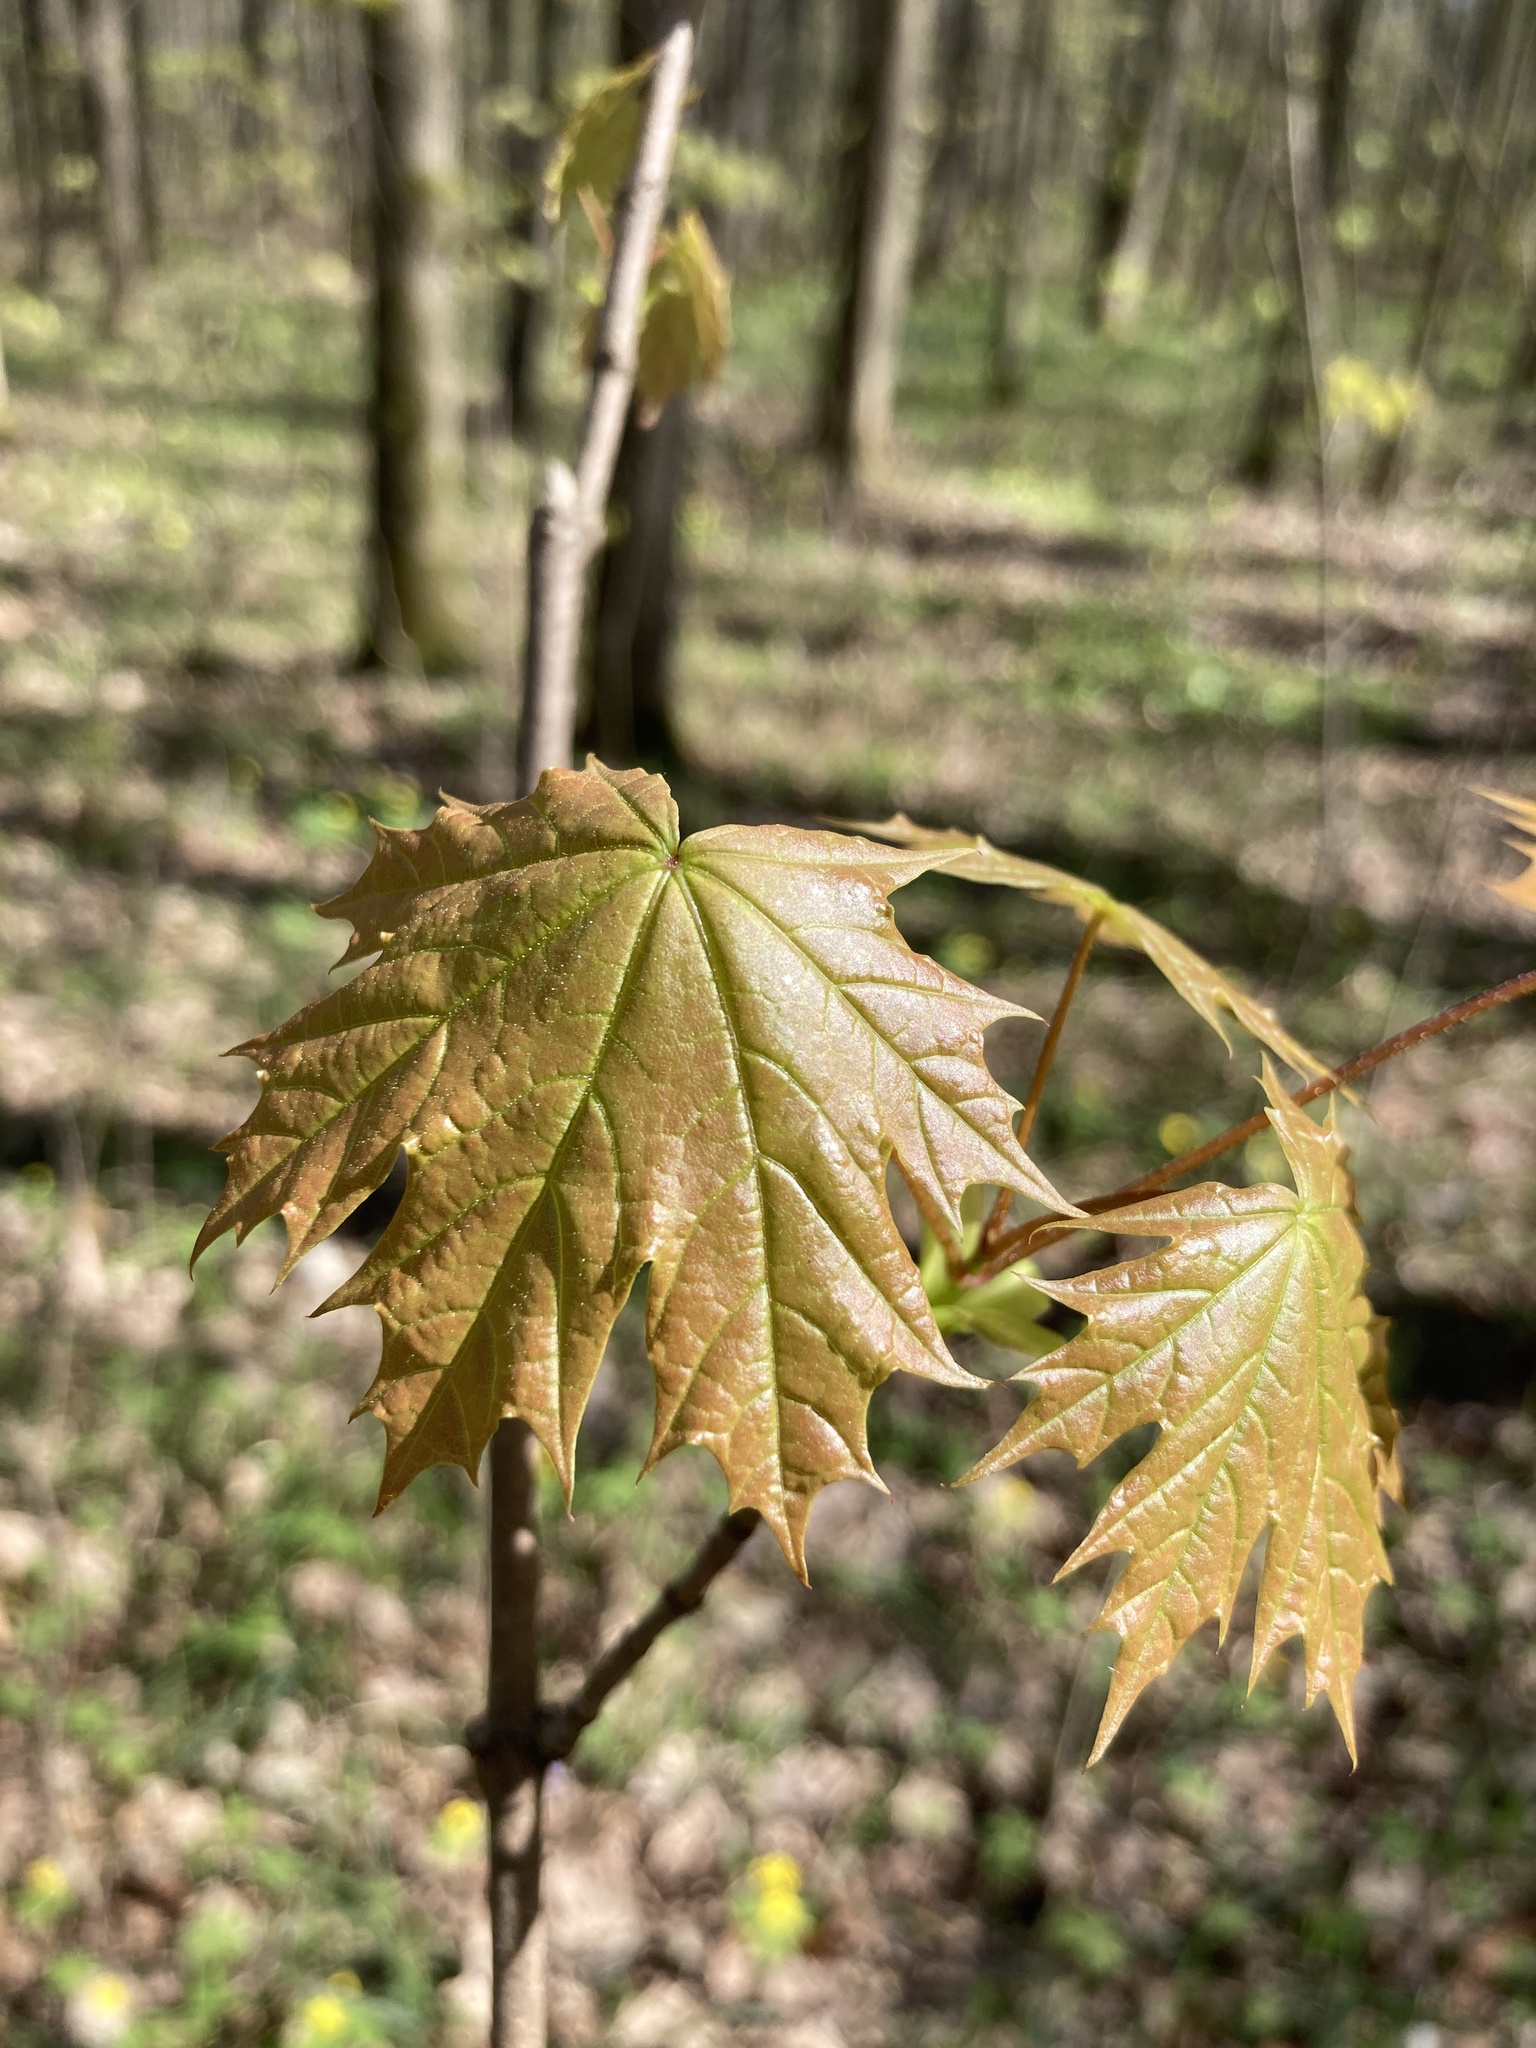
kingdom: Plantae
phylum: Tracheophyta
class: Magnoliopsida
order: Sapindales
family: Sapindaceae
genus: Acer
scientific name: Acer platanoides
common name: Norway maple
